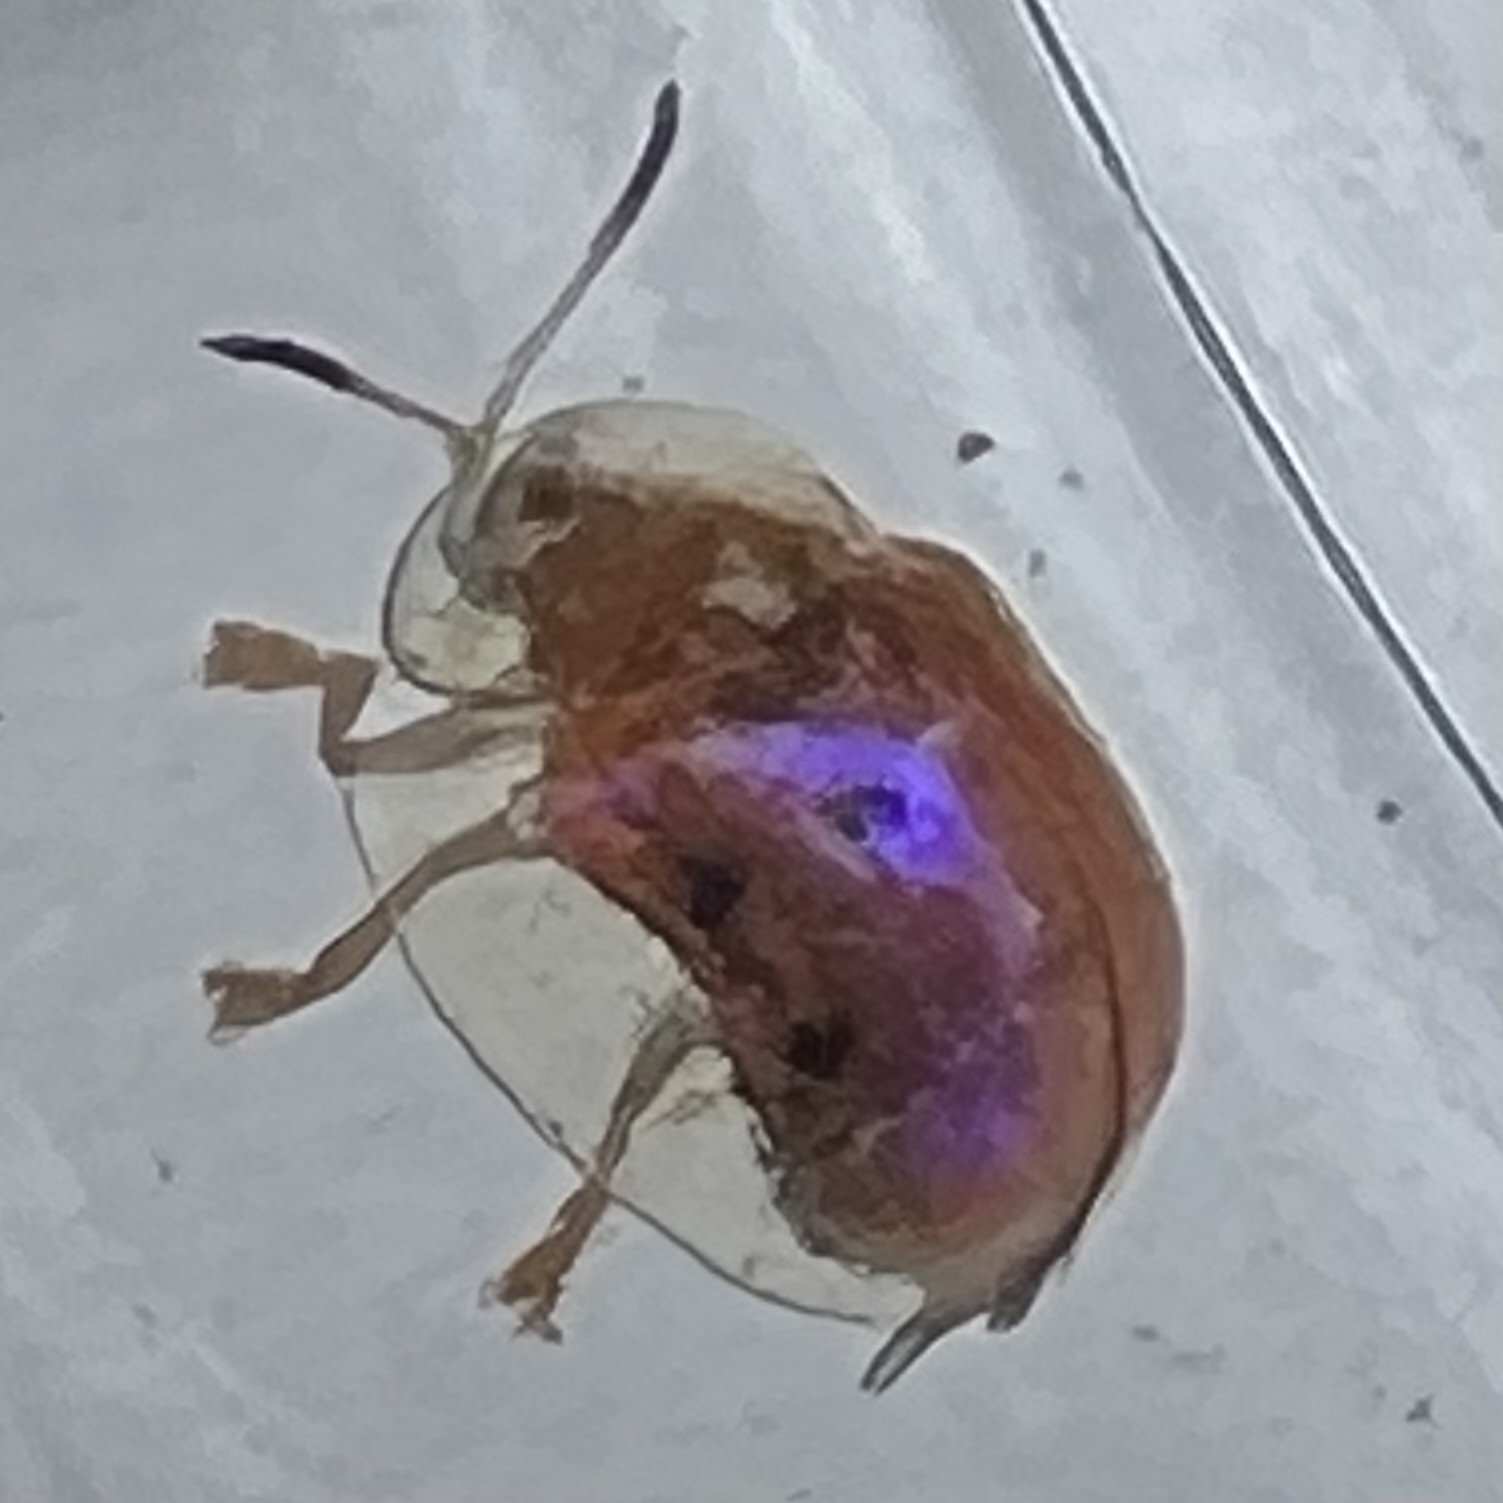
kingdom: Animalia
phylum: Arthropoda
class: Insecta
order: Coleoptera
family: Chrysomelidae
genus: Charidotella
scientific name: Charidotella sexpunctata
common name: Golden tortoise beetle
